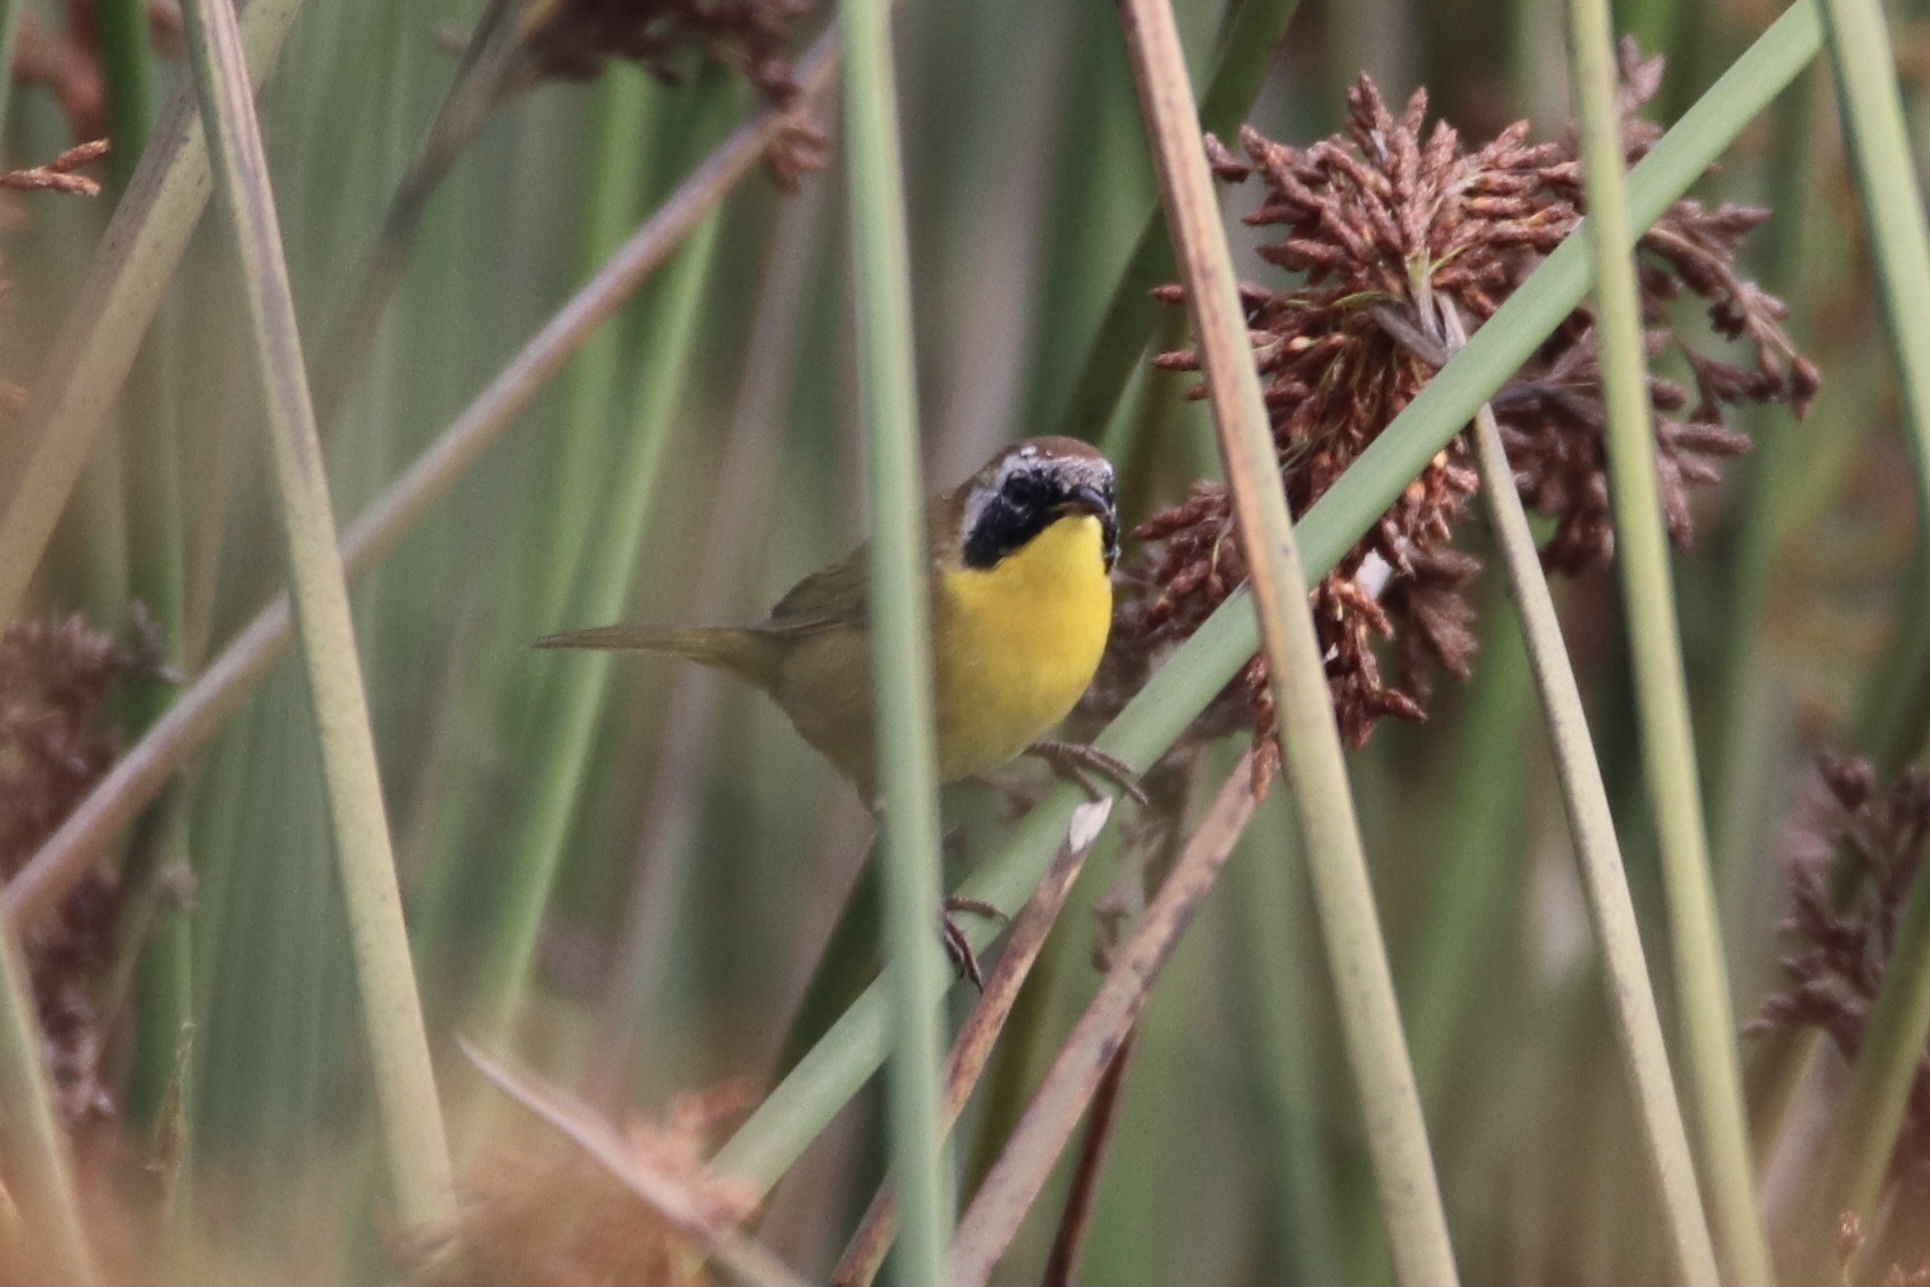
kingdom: Animalia
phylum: Chordata
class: Aves
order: Passeriformes
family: Parulidae
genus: Geothlypis
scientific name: Geothlypis trichas
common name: Common yellowthroat
